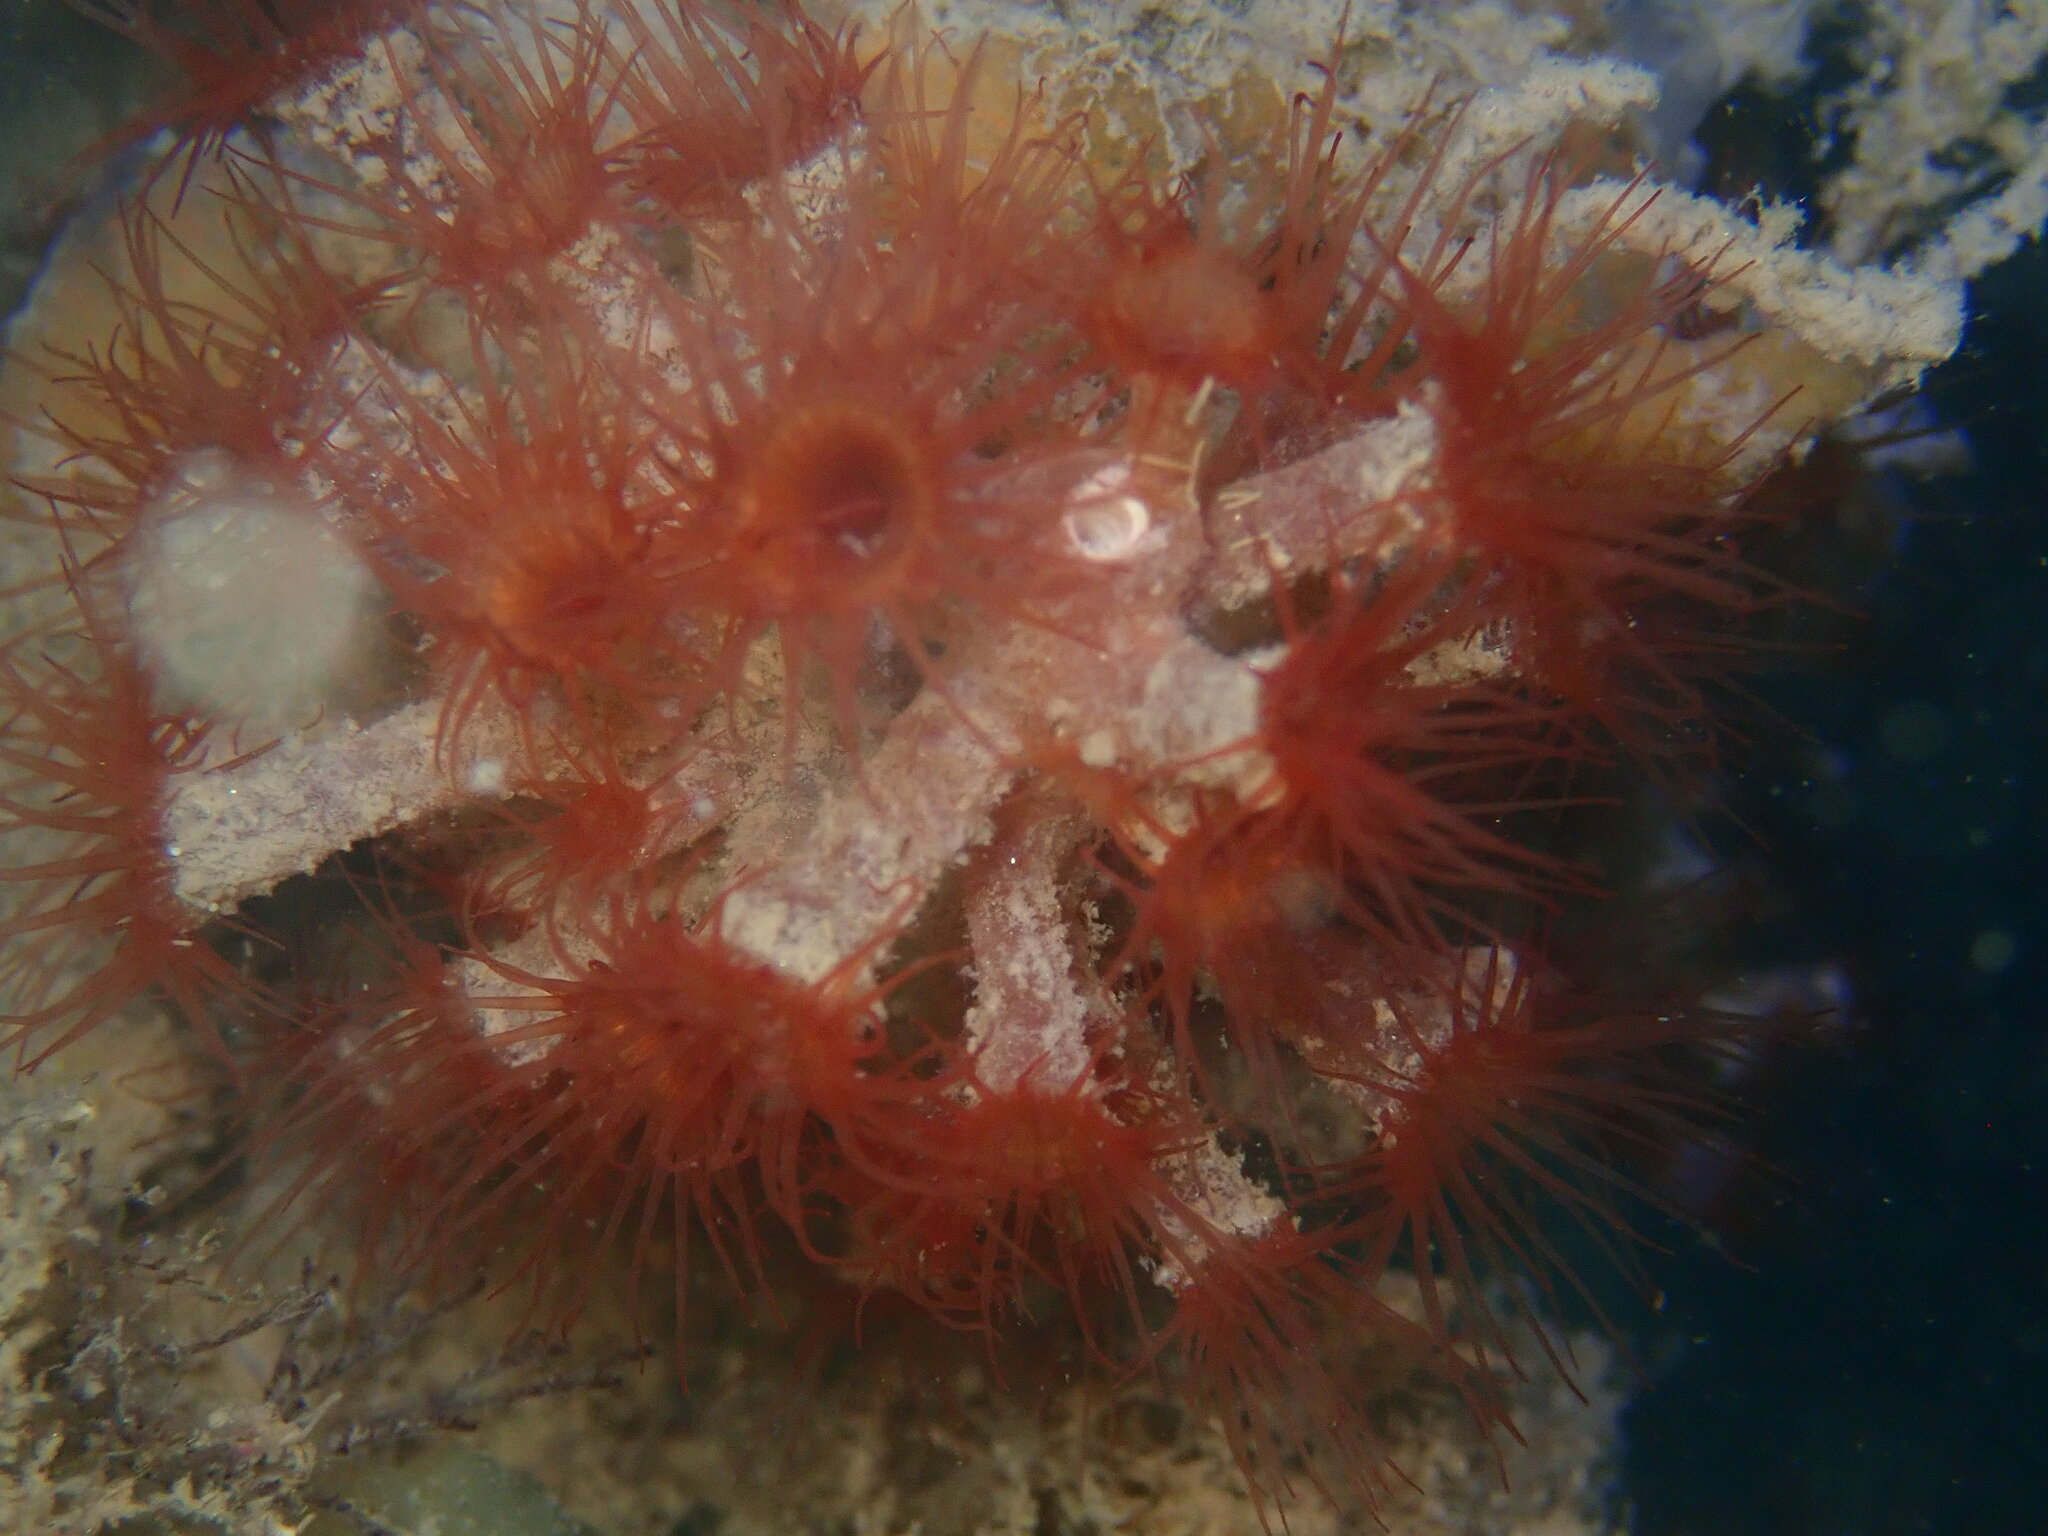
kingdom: Animalia
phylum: Cnidaria
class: Anthozoa
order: Zoantharia
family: Hydrozoanthidae
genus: Terrazoanthus
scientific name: Terrazoanthus patagonichus
